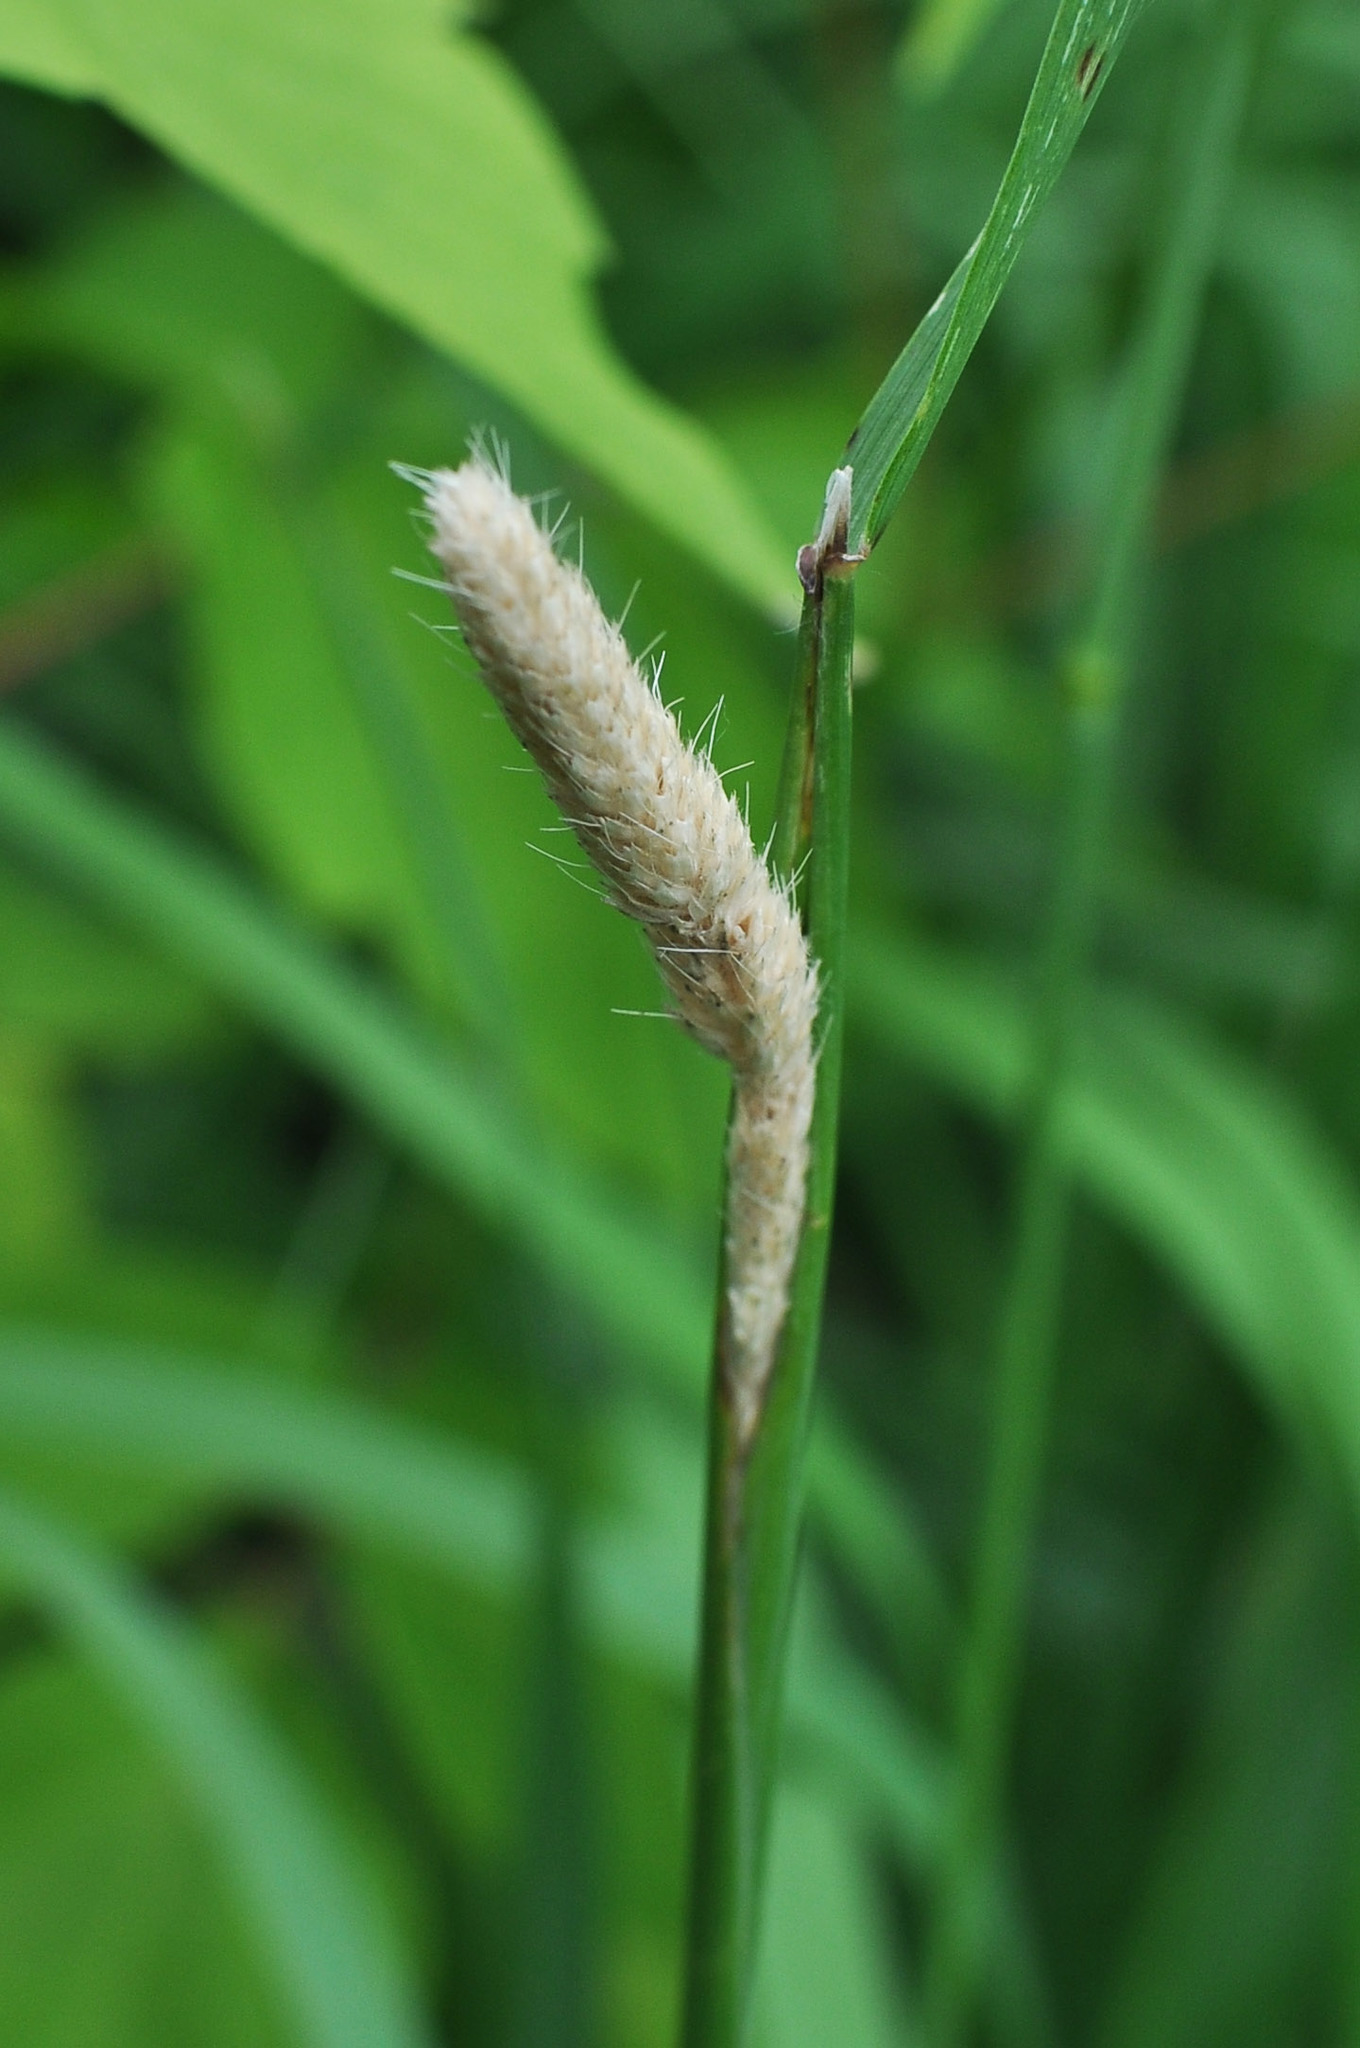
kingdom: Plantae
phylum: Tracheophyta
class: Liliopsida
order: Poales
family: Poaceae
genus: Phleum
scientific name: Phleum pratense
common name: Timothy grass
